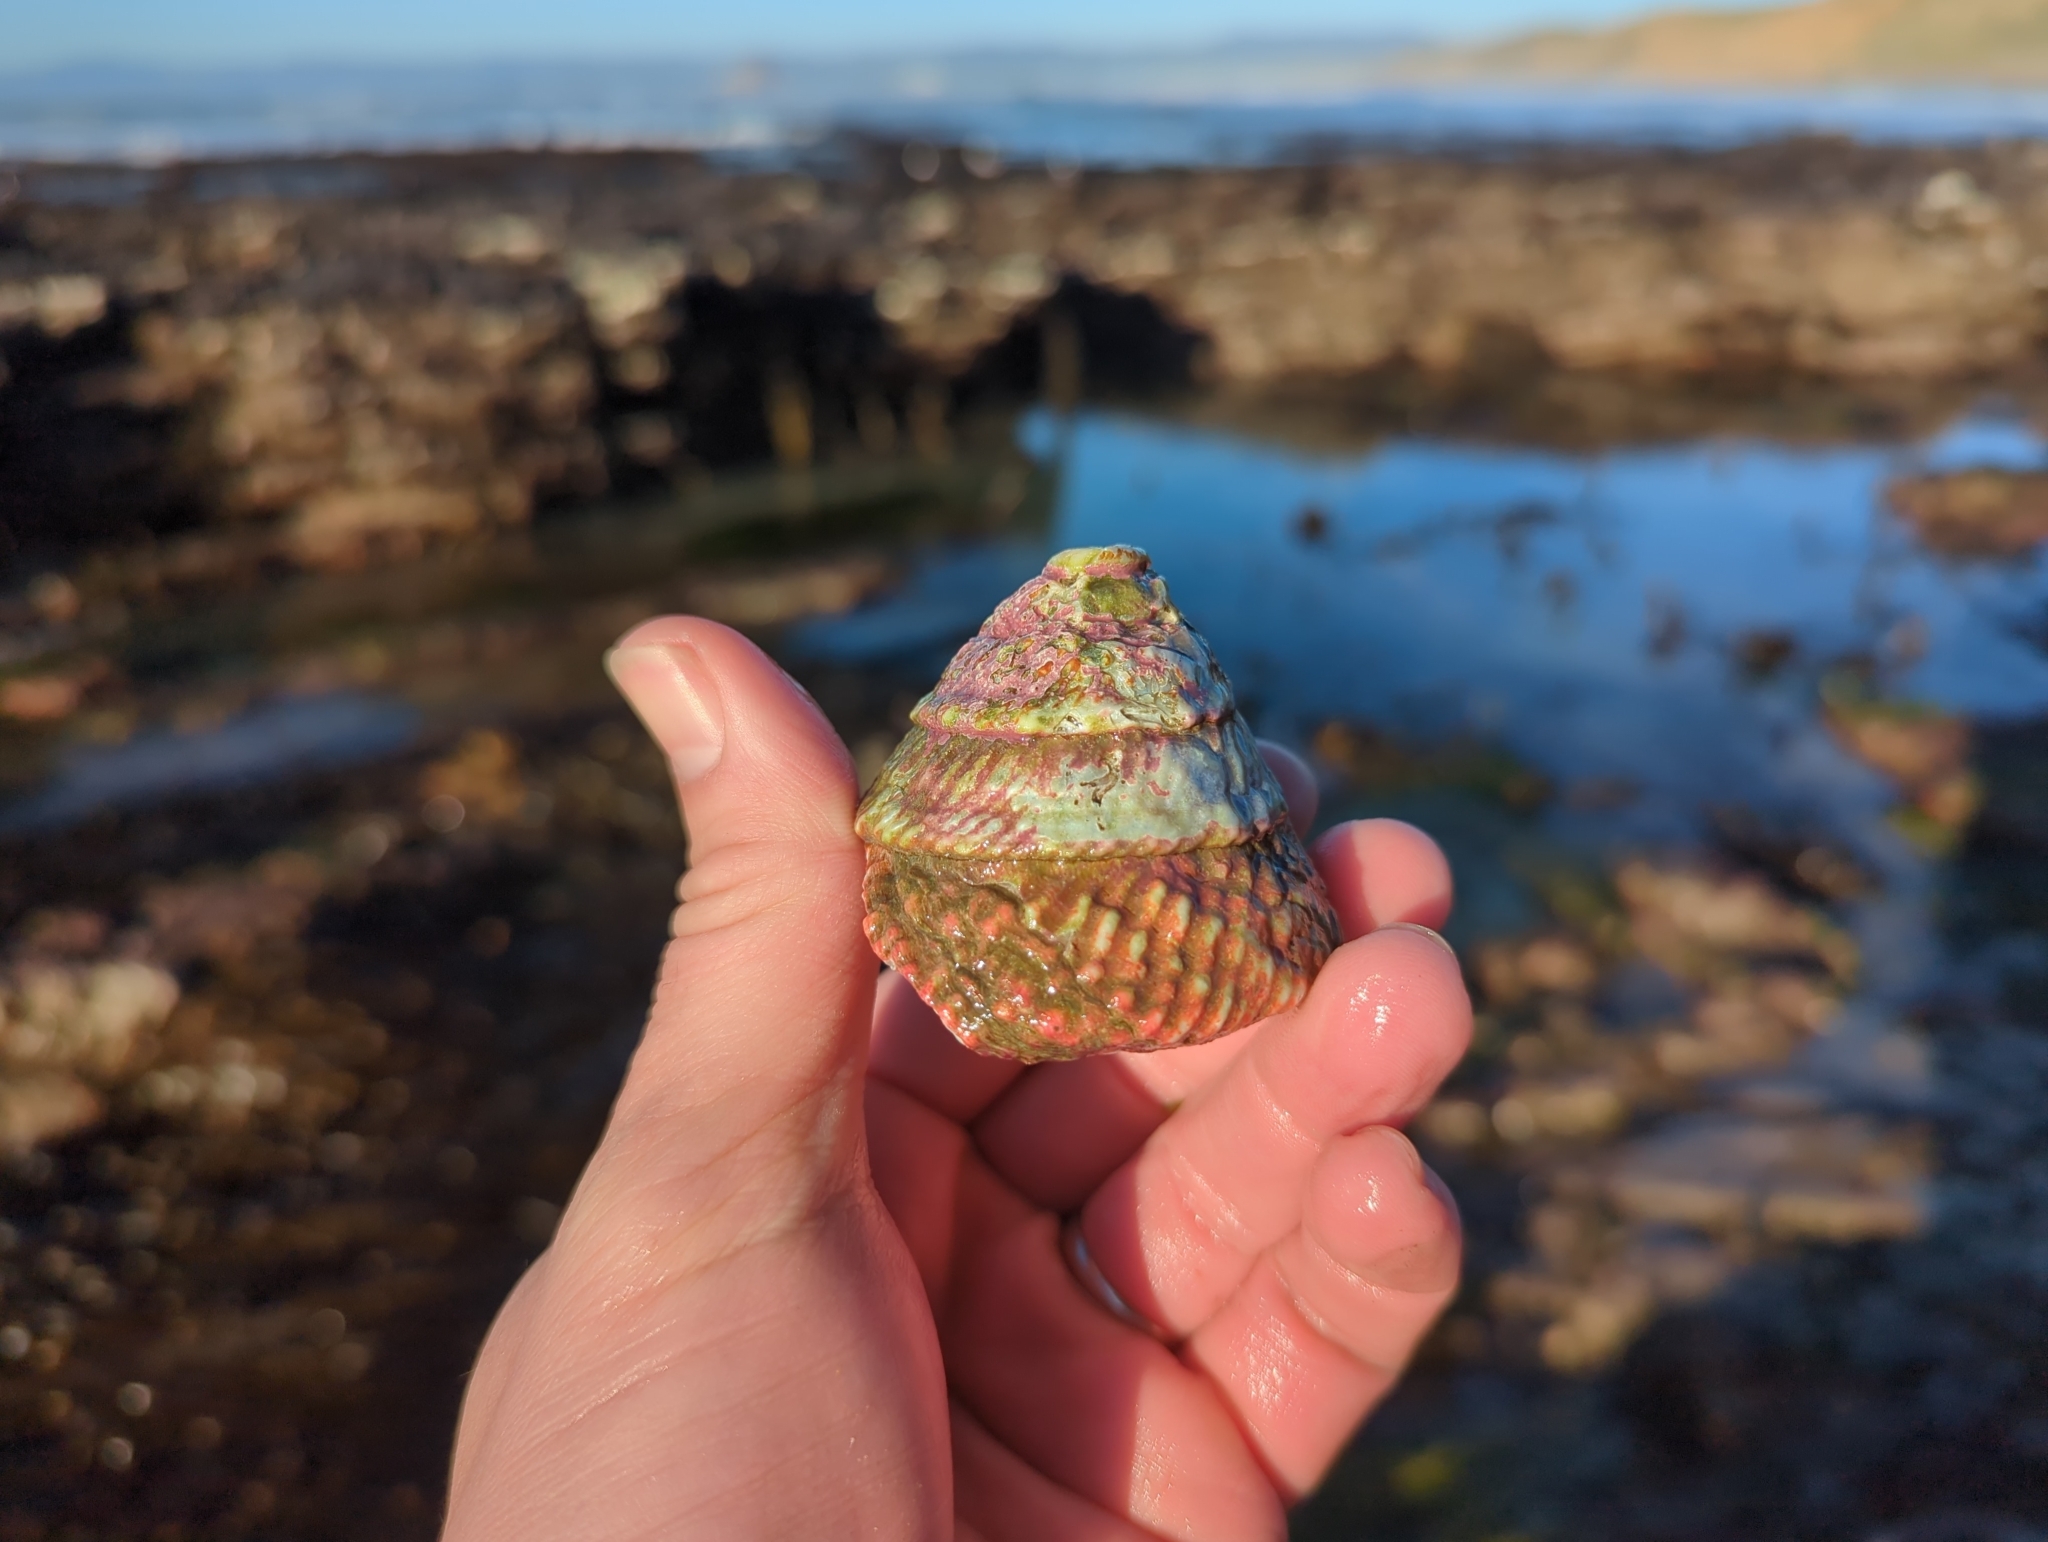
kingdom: Animalia
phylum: Mollusca
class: Gastropoda
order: Trochida
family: Turbinidae
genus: Pomaulax
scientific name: Pomaulax gibberosus
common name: Red turban
